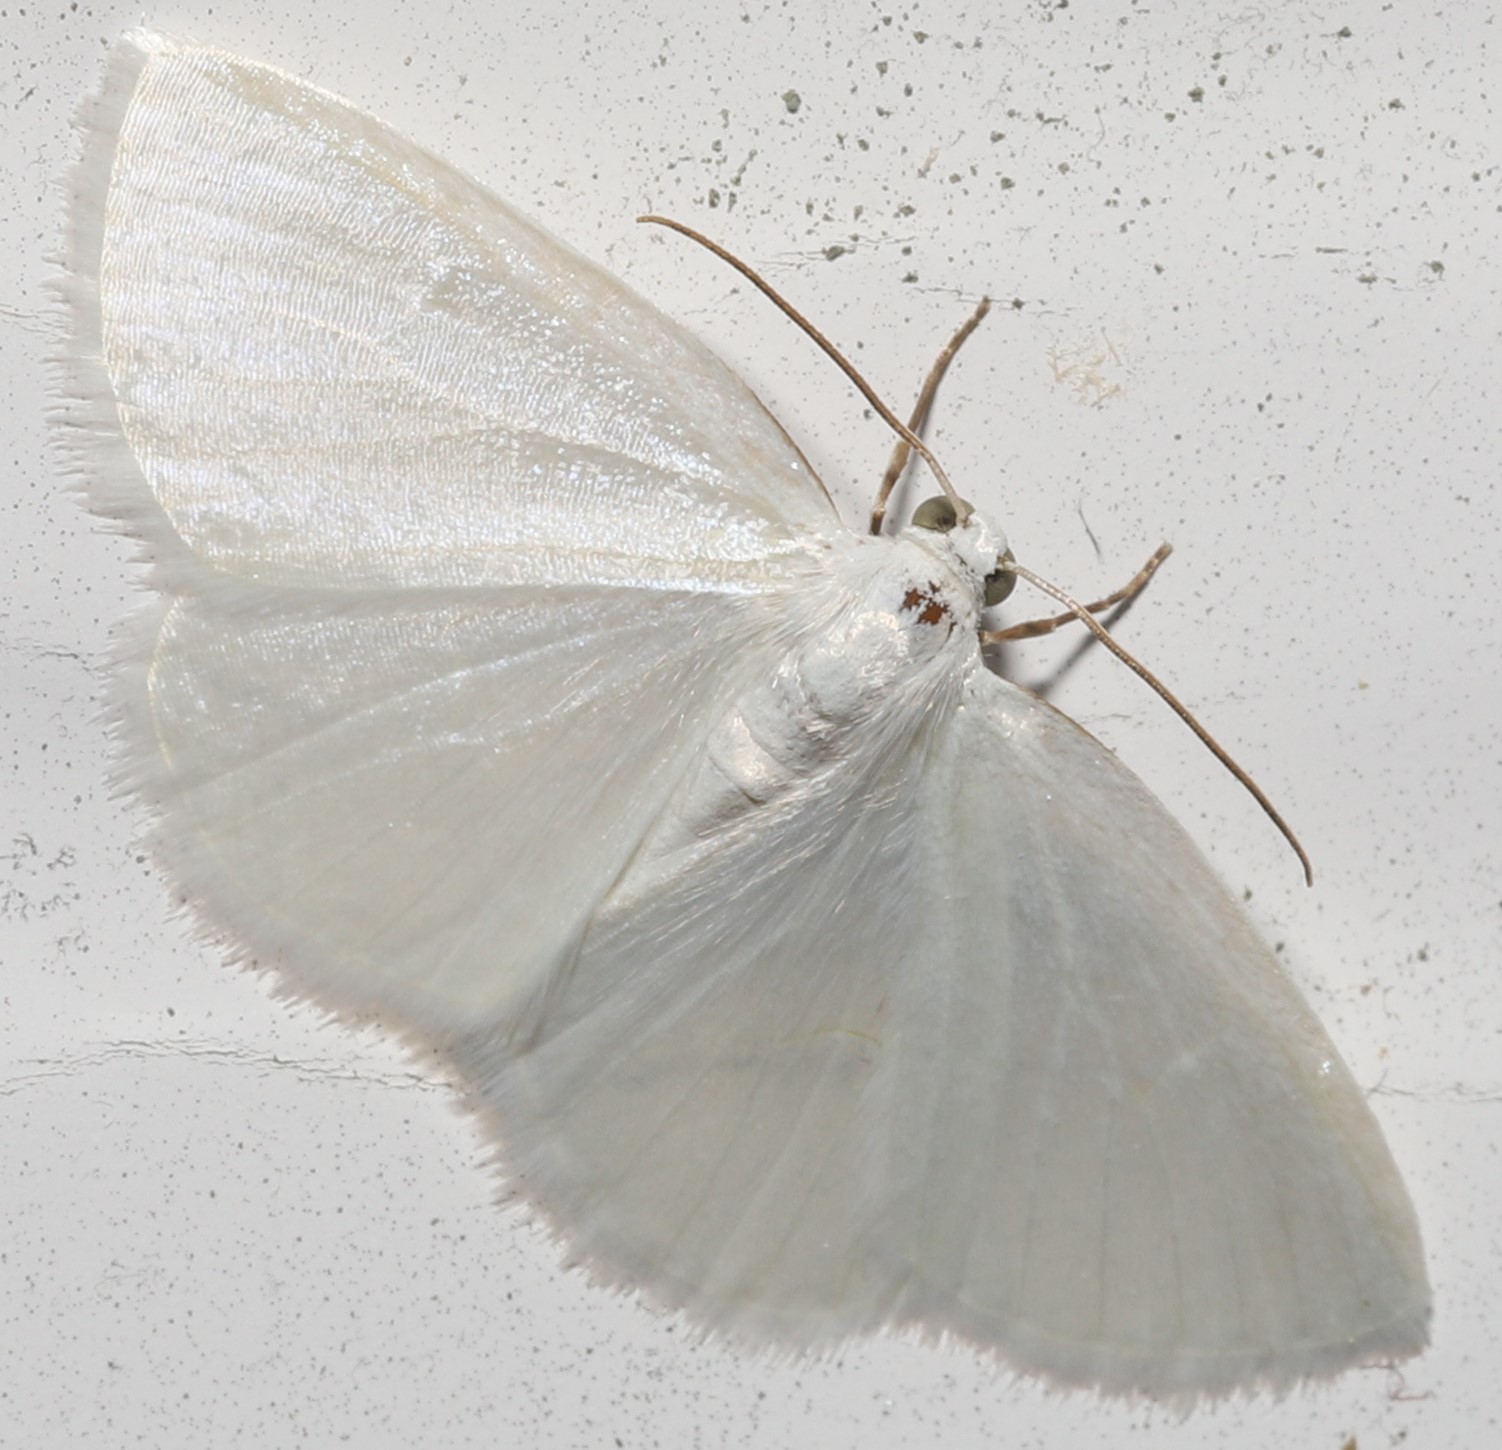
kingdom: Animalia
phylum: Arthropoda
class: Insecta
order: Lepidoptera
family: Geometridae
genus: Lomographa
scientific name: Lomographa vestaliata
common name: White spring moth
